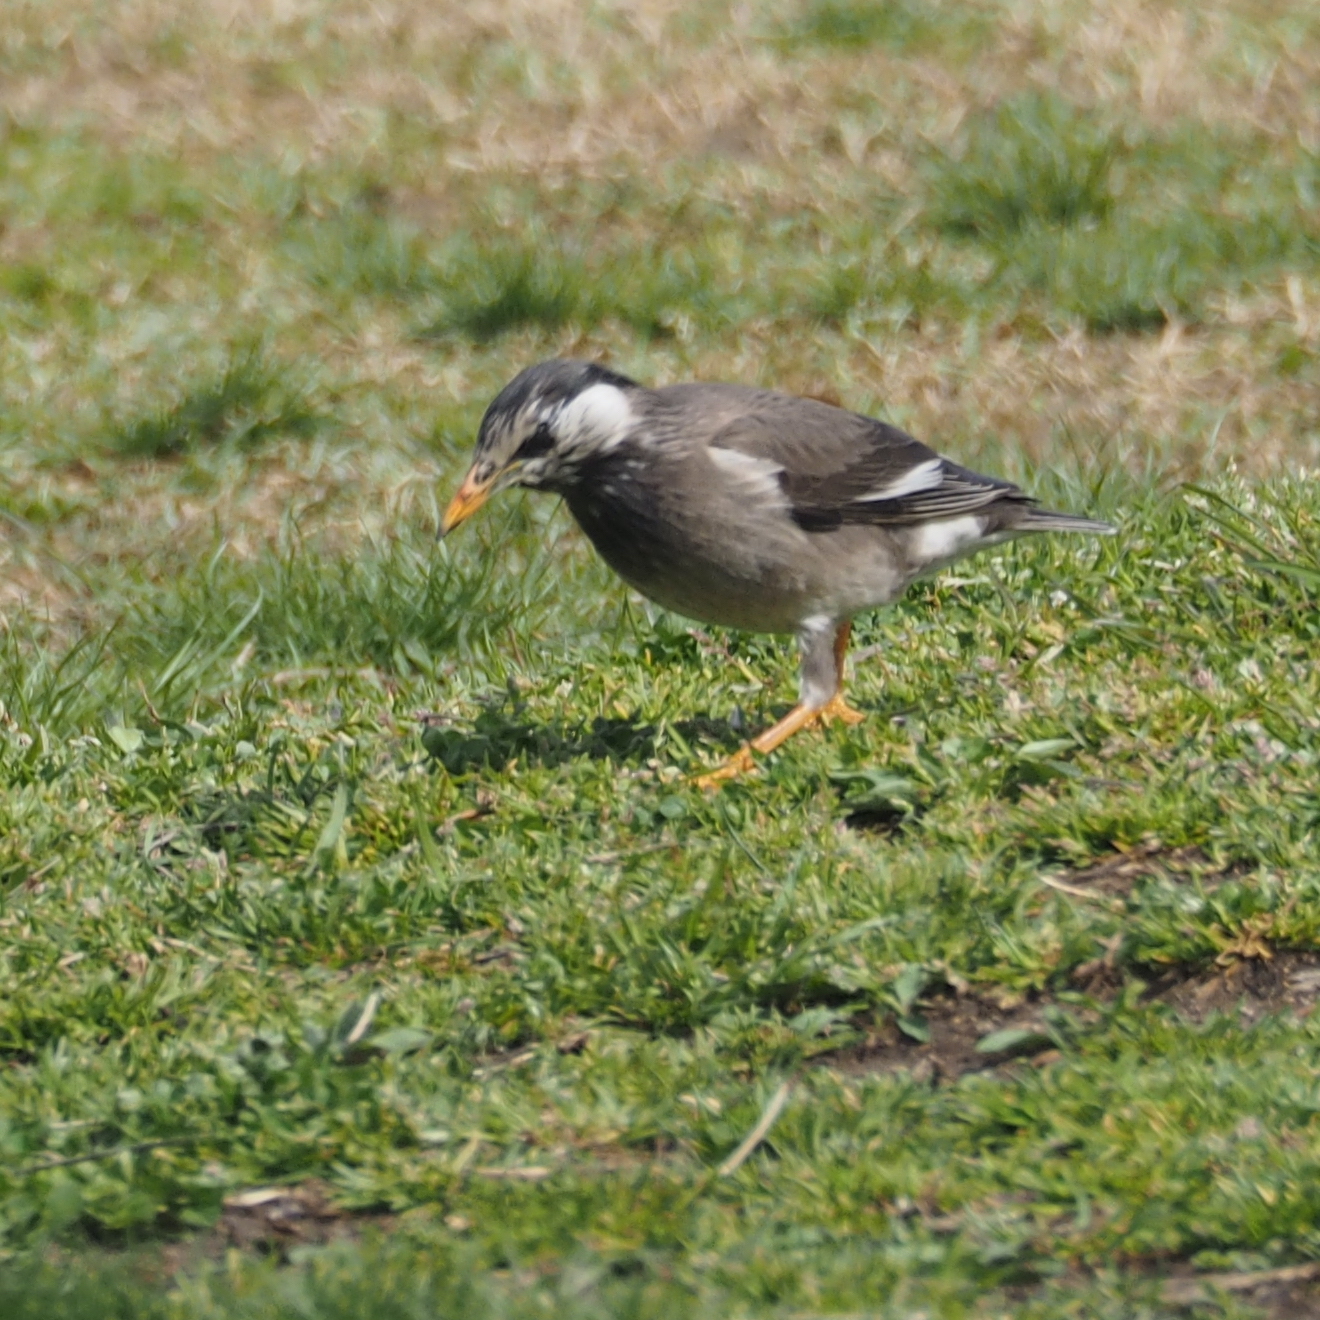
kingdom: Animalia
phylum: Chordata
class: Aves
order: Passeriformes
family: Sturnidae
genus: Spodiopsar
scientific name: Spodiopsar cineraceus
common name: White-cheeked starling
